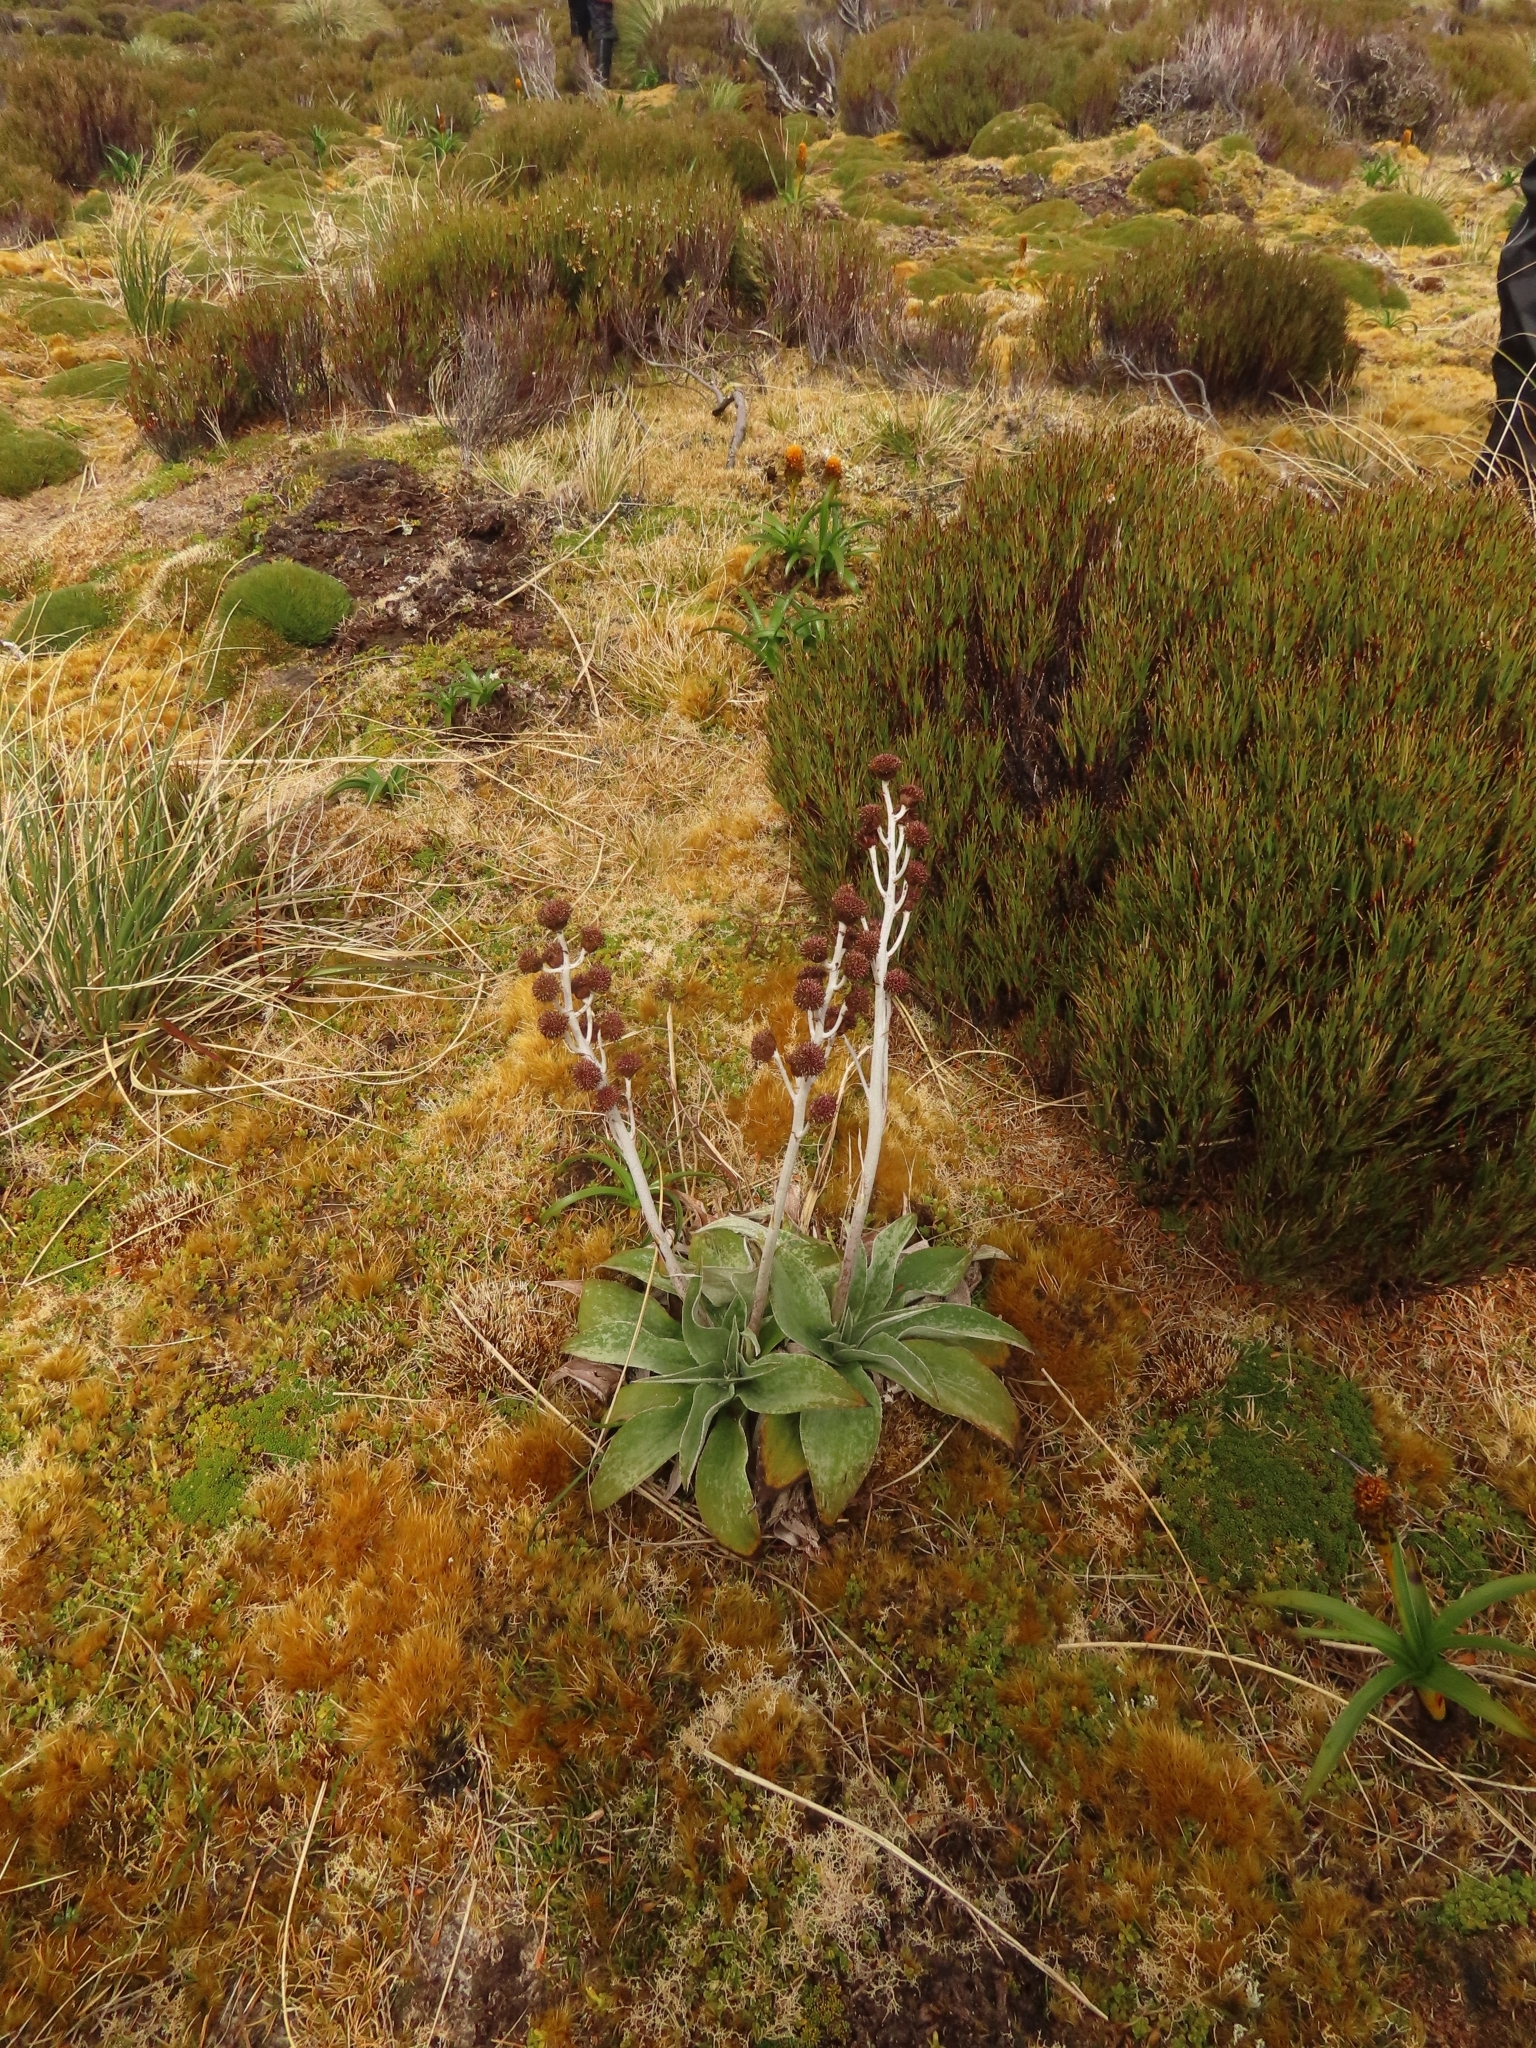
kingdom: Plantae
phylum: Tracheophyta
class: Magnoliopsida
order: Asterales
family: Asteraceae
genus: Pleurophyllum
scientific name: Pleurophyllum criniferum
